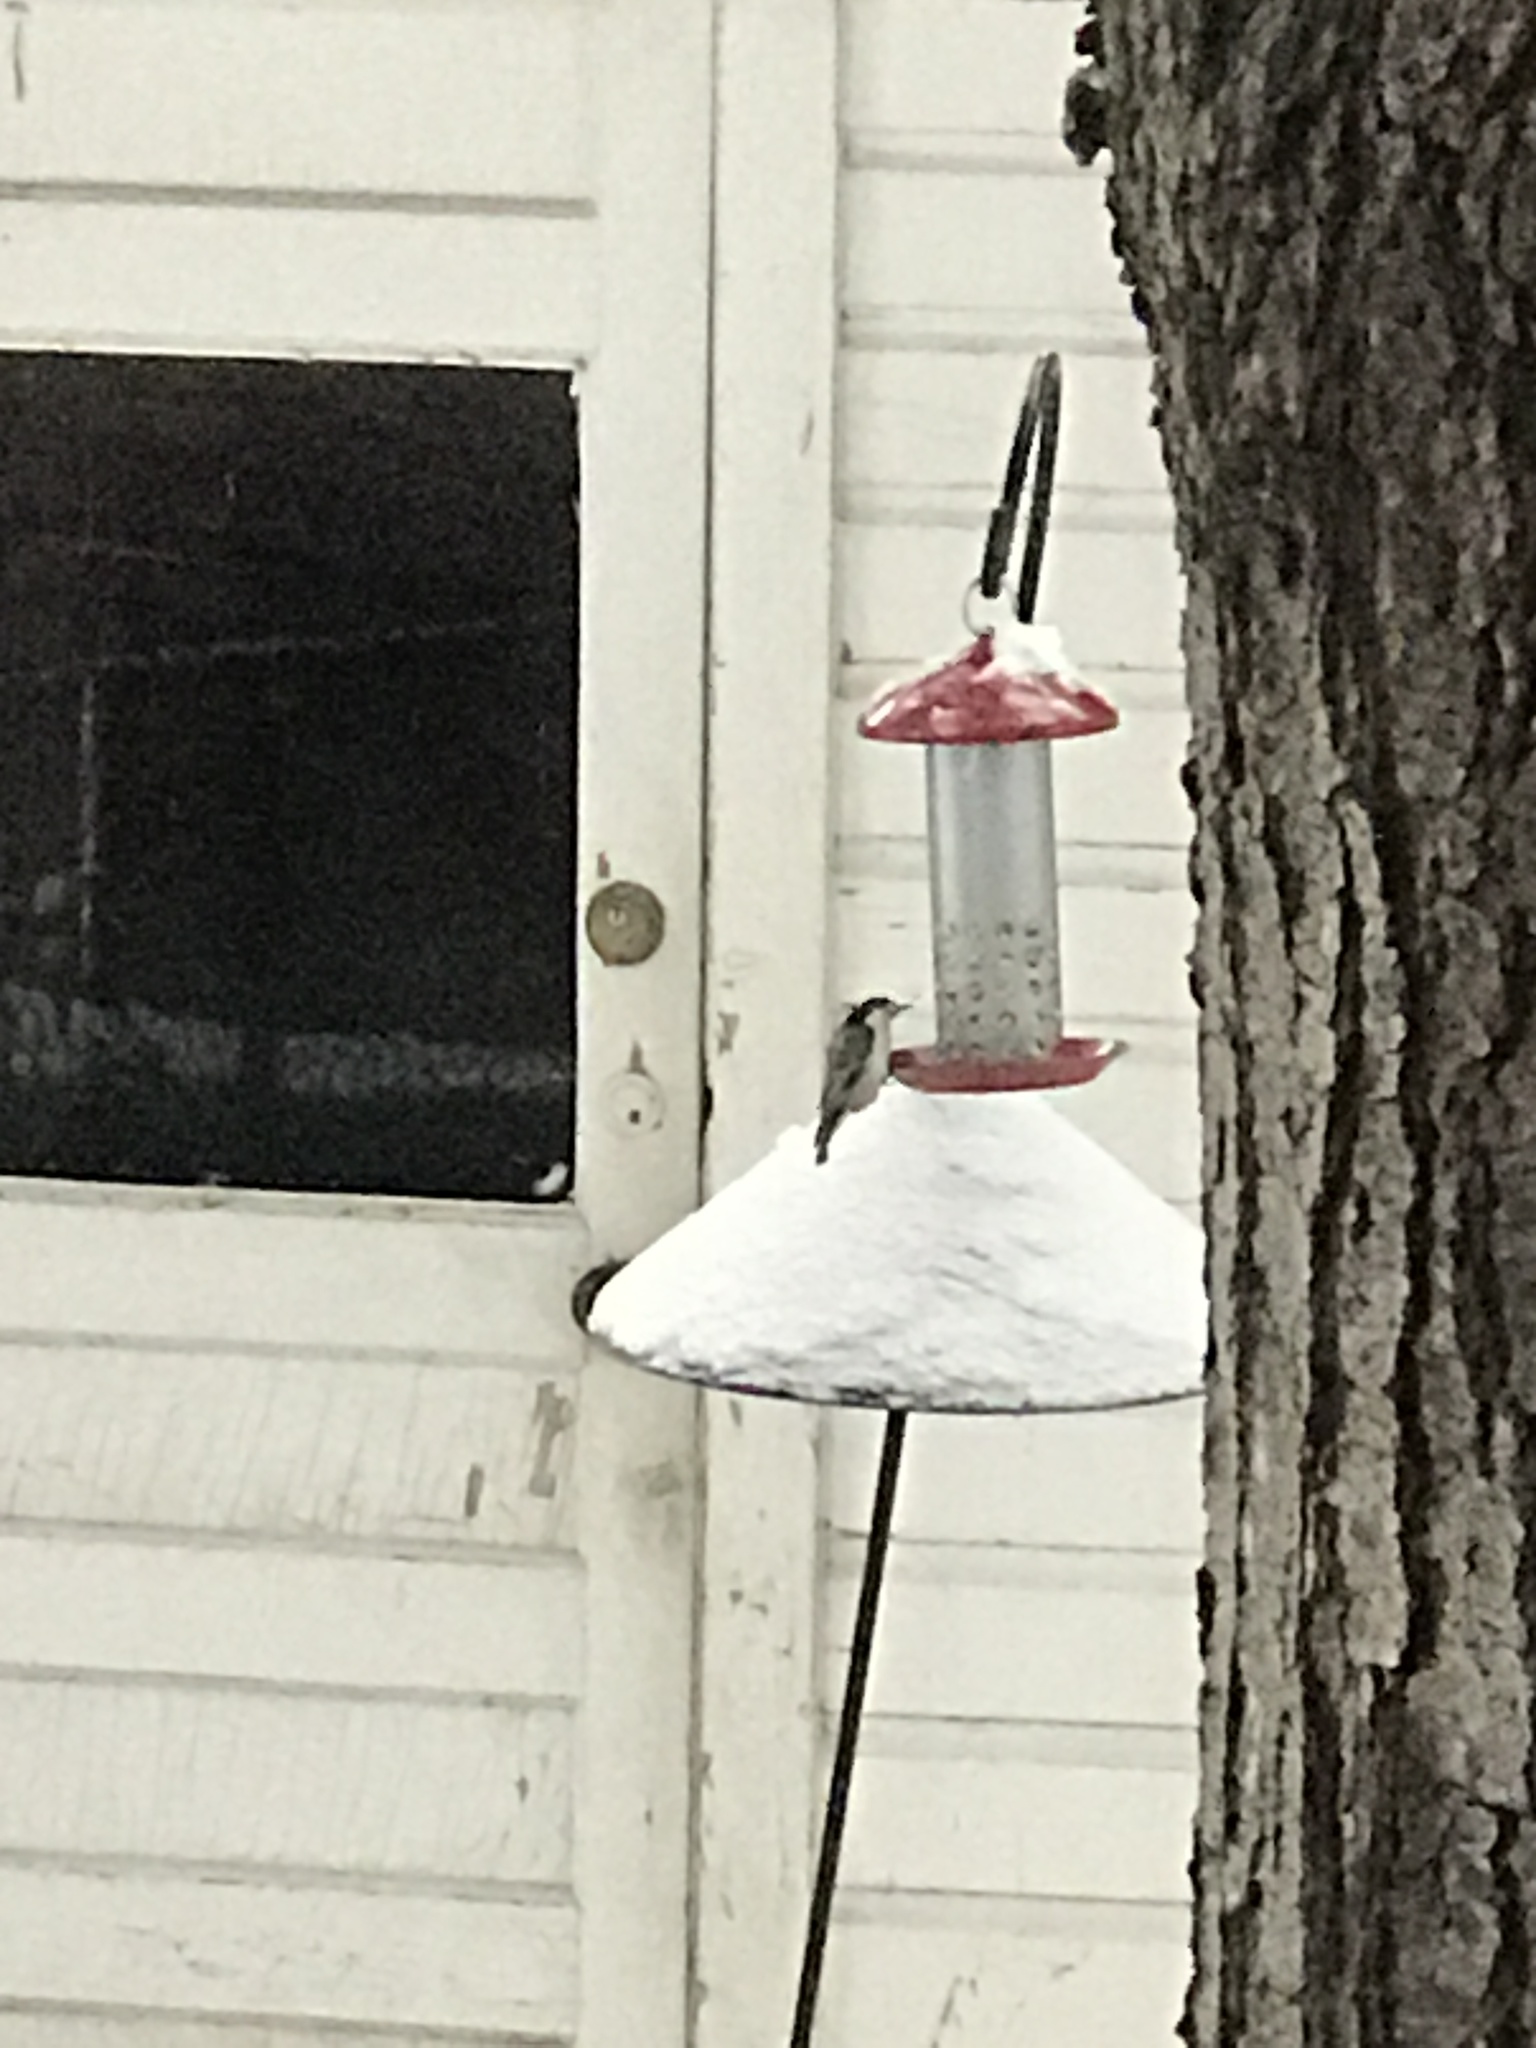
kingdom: Animalia
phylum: Chordata
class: Aves
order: Passeriformes
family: Sittidae
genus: Sitta
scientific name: Sitta carolinensis
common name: White-breasted nuthatch
